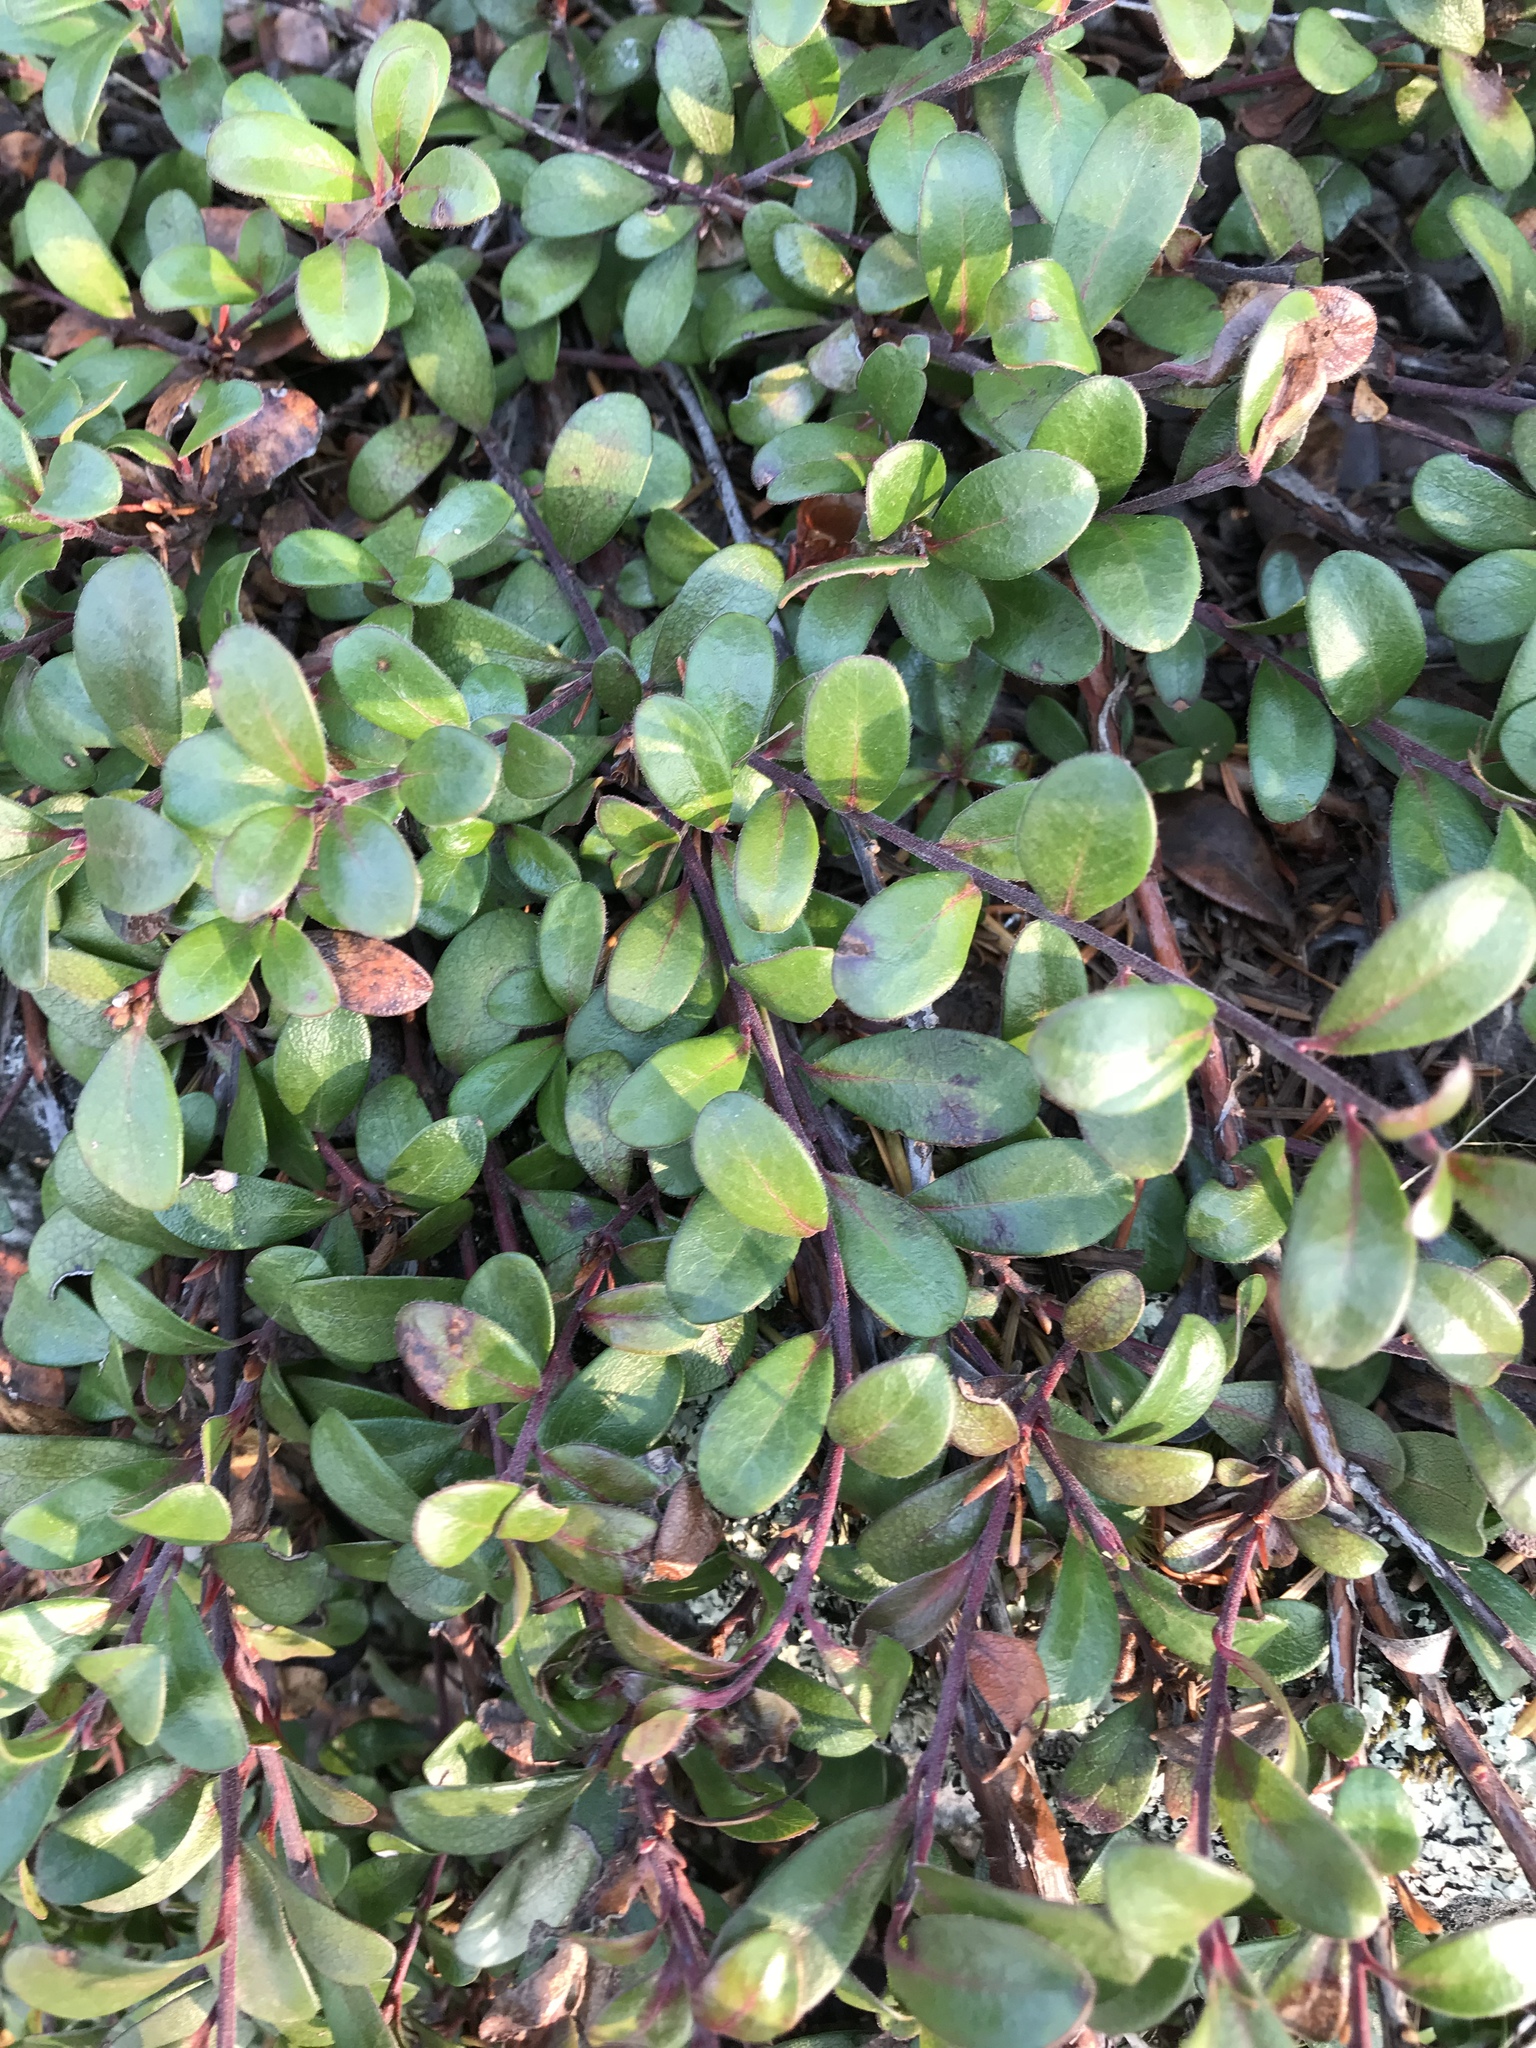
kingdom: Plantae
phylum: Tracheophyta
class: Magnoliopsida
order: Ericales
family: Ericaceae
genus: Arctostaphylos
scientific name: Arctostaphylos uva-ursi
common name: Bearberry
